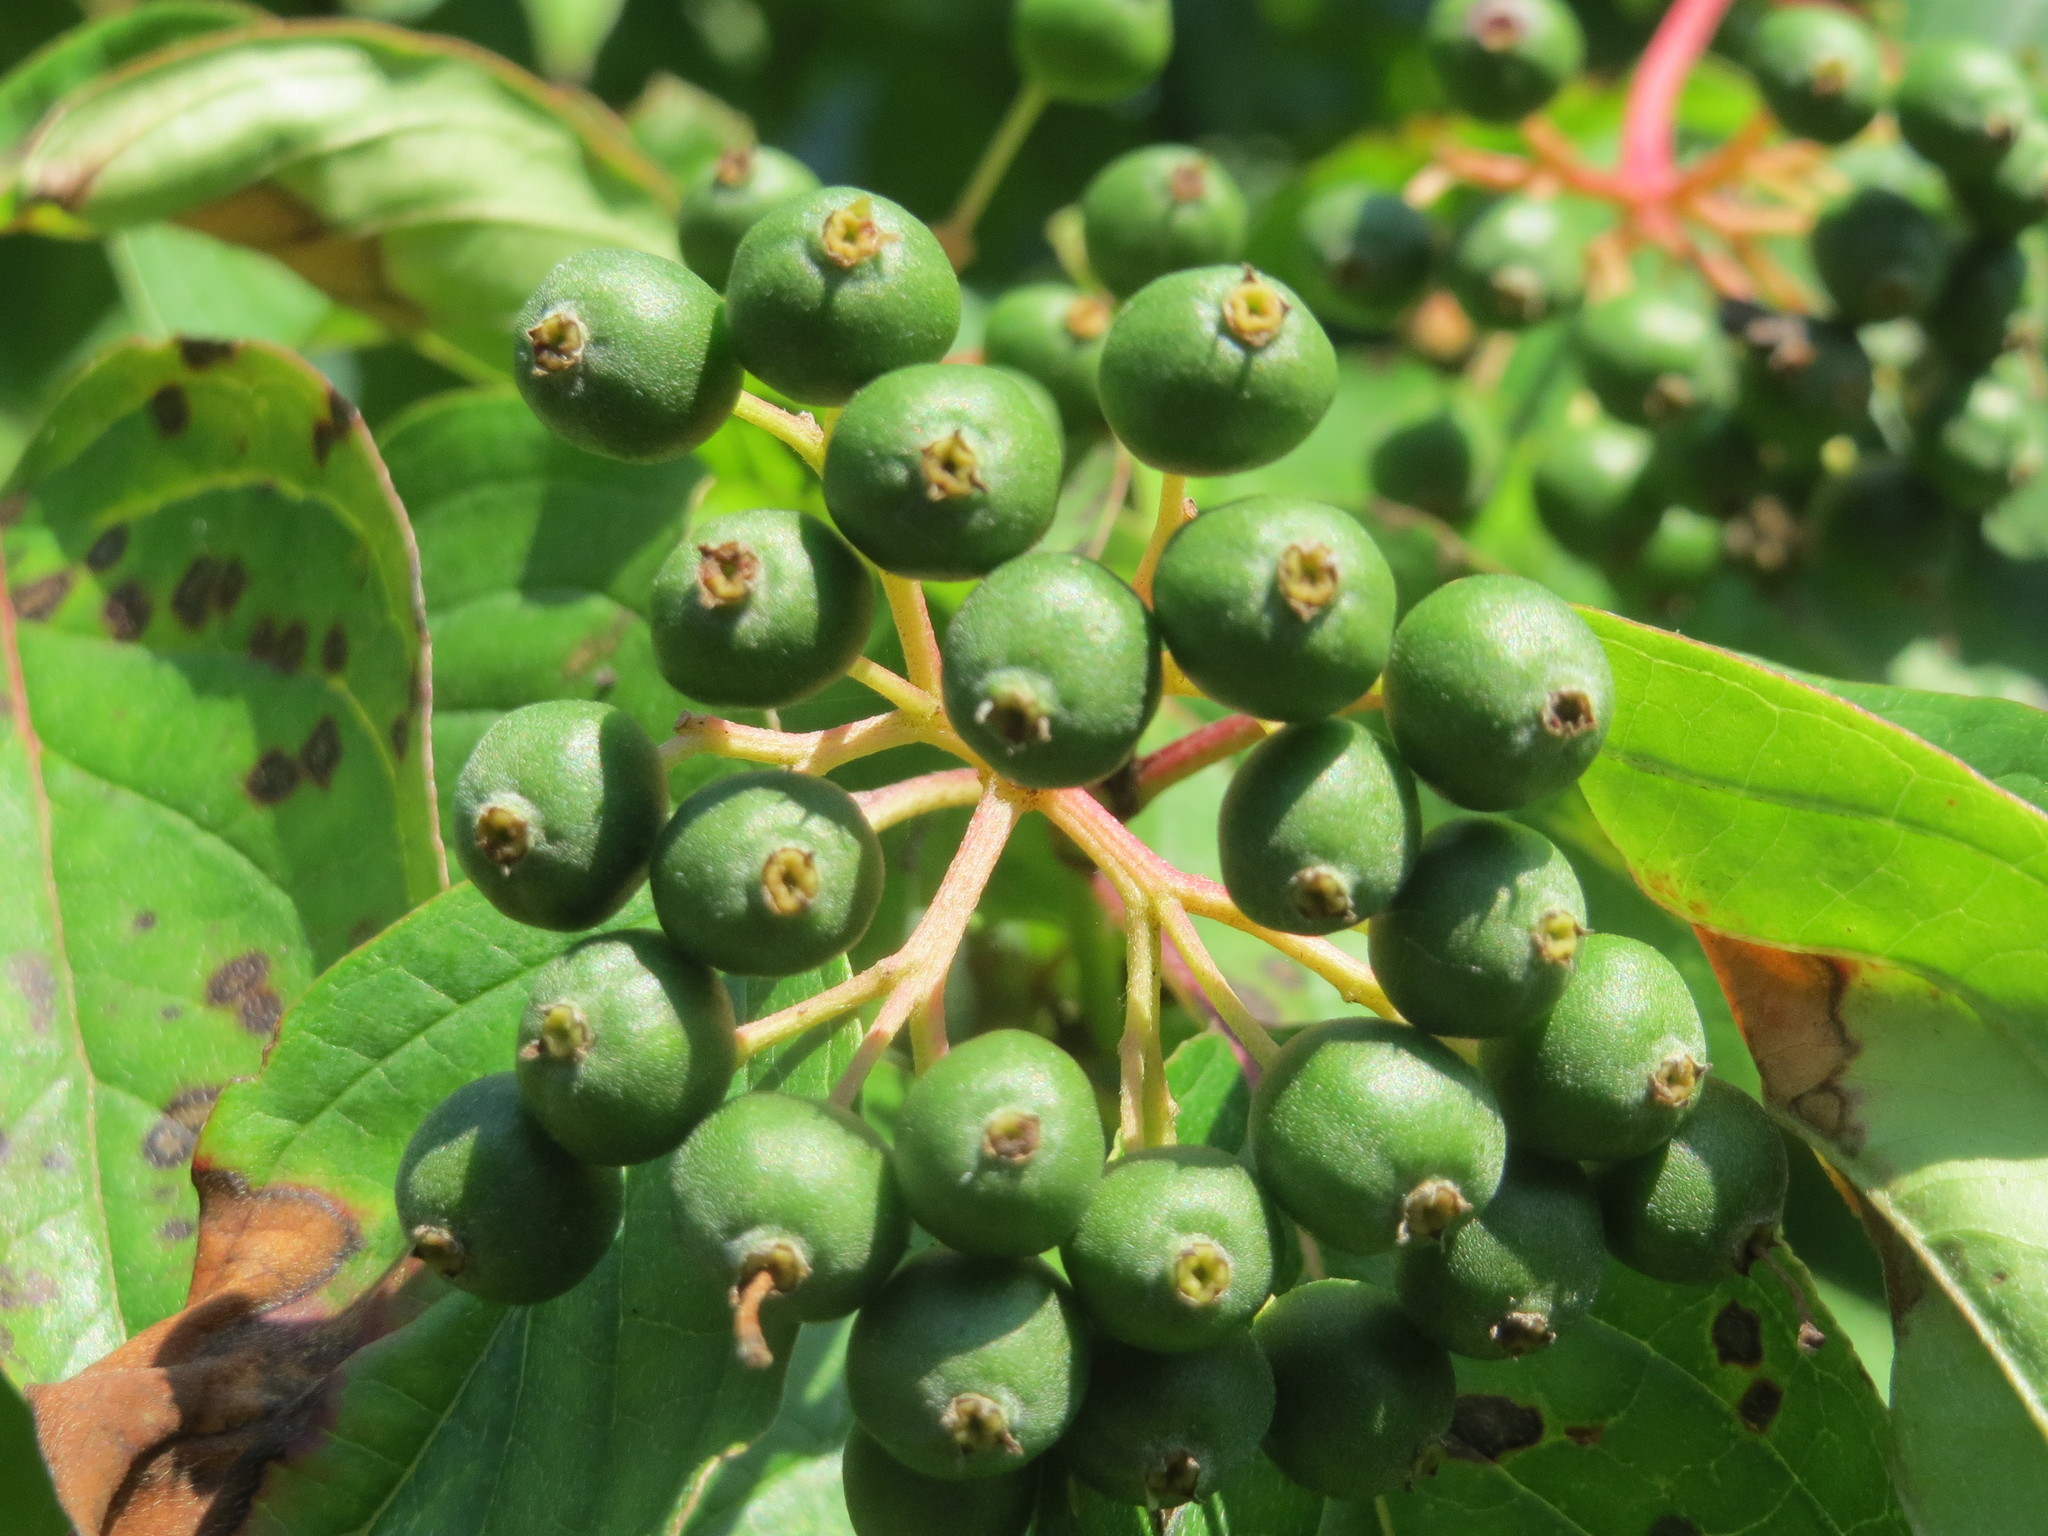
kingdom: Plantae
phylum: Tracheophyta
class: Magnoliopsida
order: Cornales
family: Cornaceae
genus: Cornus
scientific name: Cornus sanguinea
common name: Dogwood
